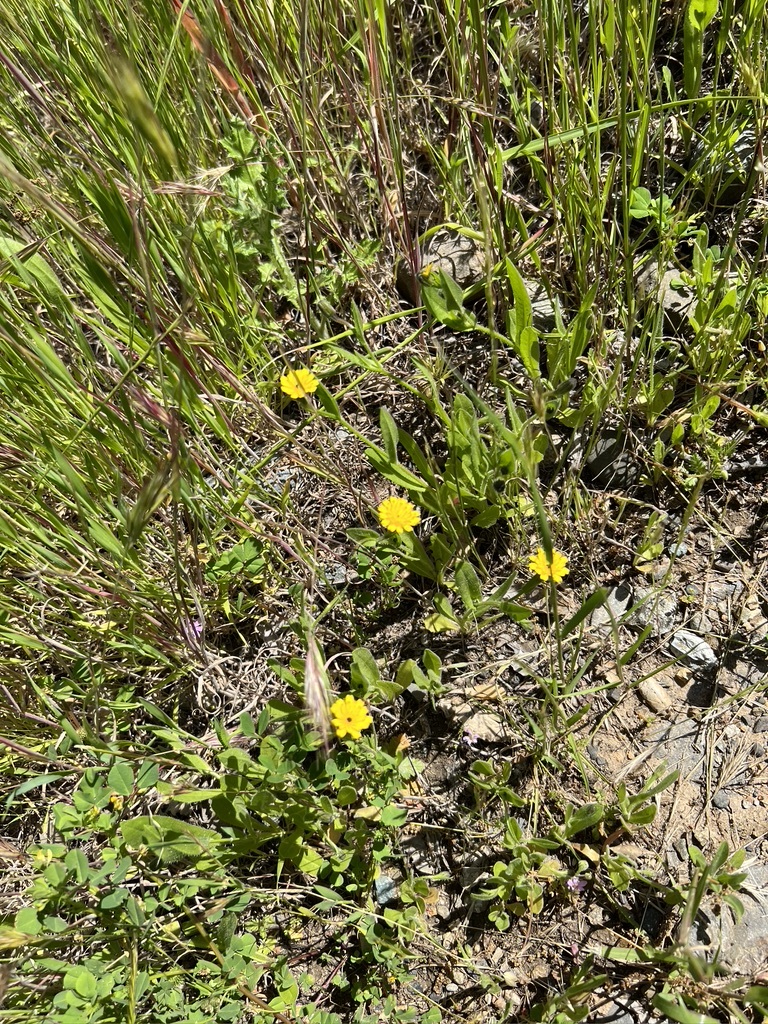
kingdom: Plantae
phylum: Tracheophyta
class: Magnoliopsida
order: Asterales
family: Asteraceae
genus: Hedypnois
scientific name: Hedypnois rhagadioloides
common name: Cretan weed
